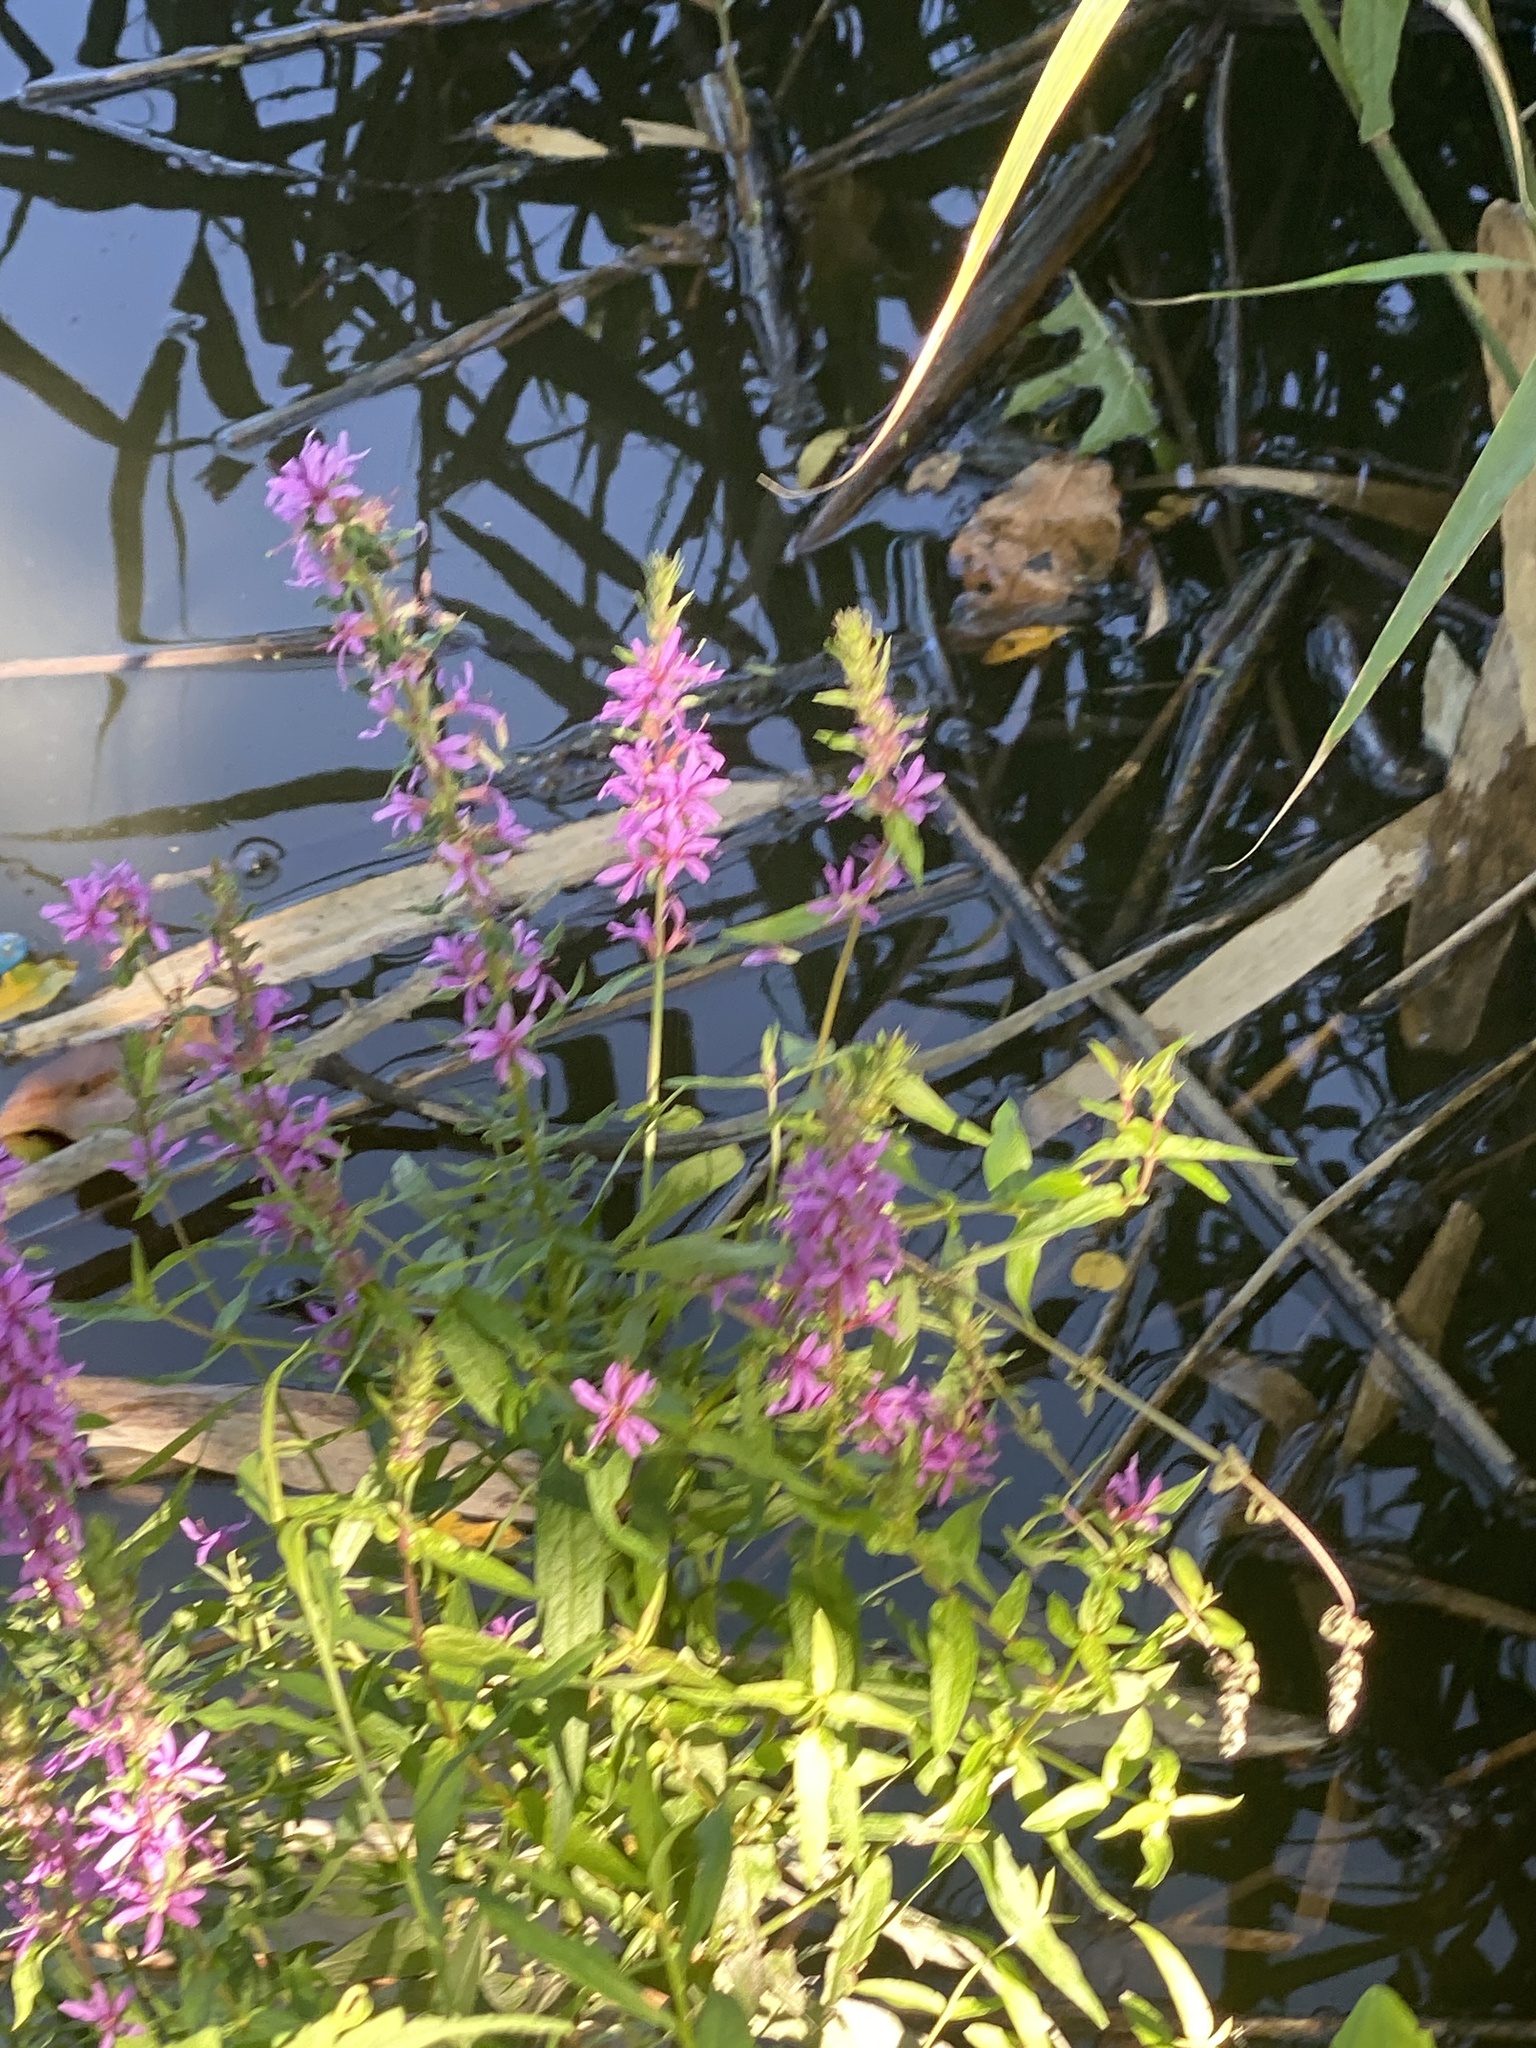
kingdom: Plantae
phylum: Tracheophyta
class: Magnoliopsida
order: Myrtales
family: Lythraceae
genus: Lythrum
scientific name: Lythrum salicaria
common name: Purple loosestrife
